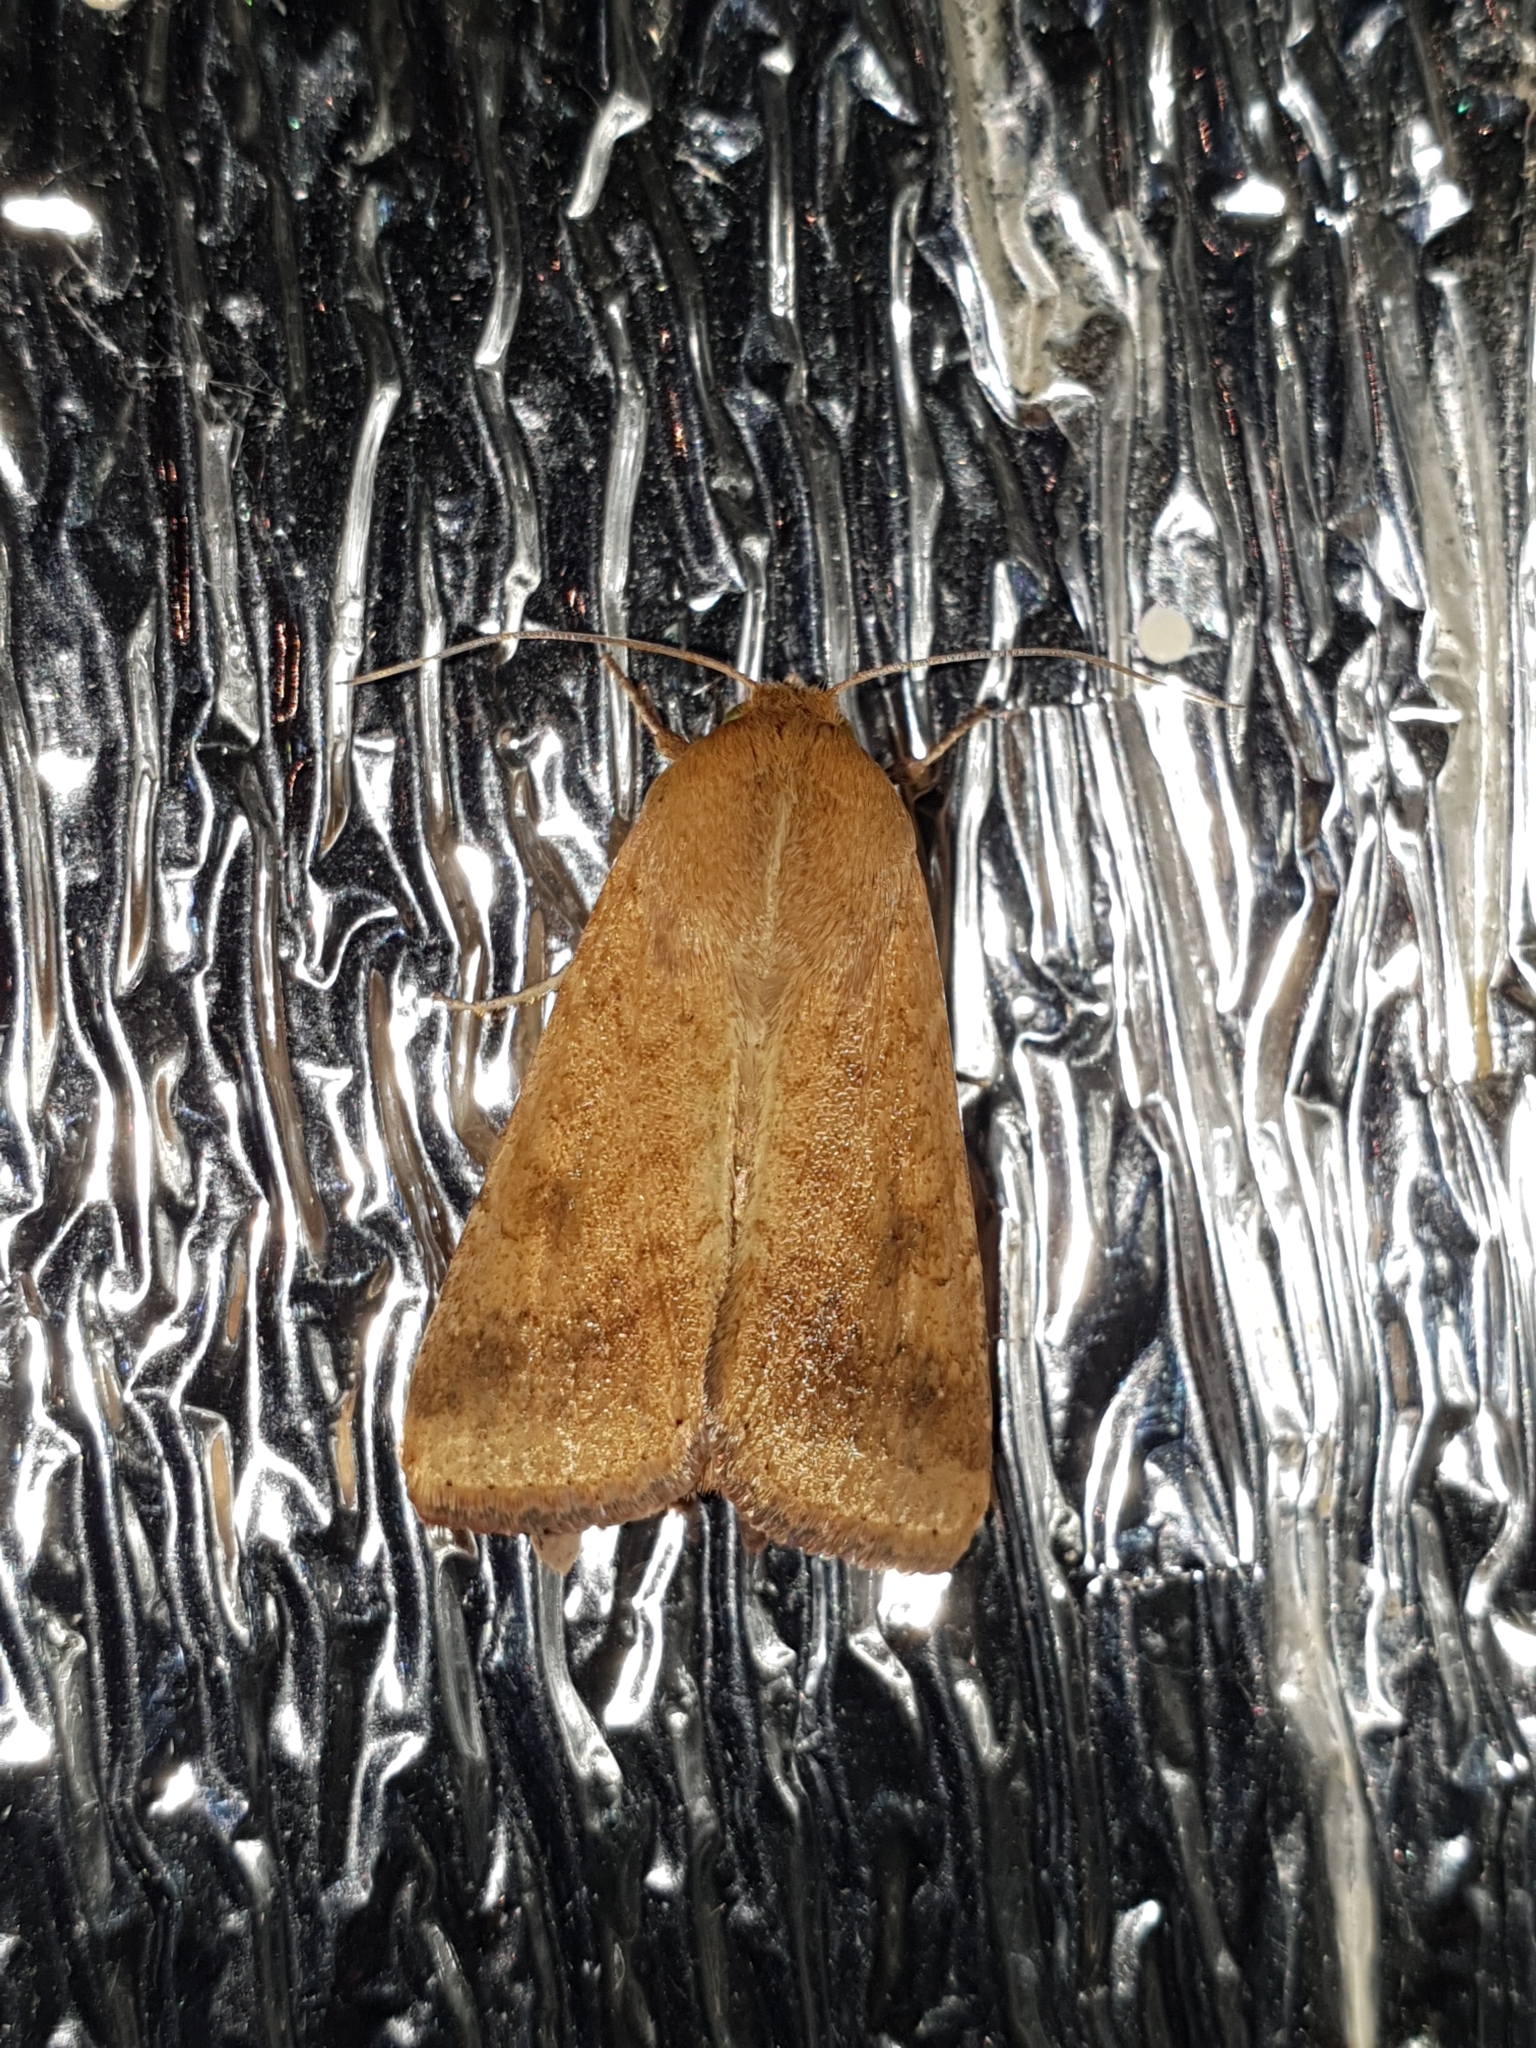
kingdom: Animalia
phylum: Arthropoda
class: Insecta
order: Lepidoptera
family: Noctuidae
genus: Helicoverpa
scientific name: Helicoverpa armigera
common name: Cotton bollworm
